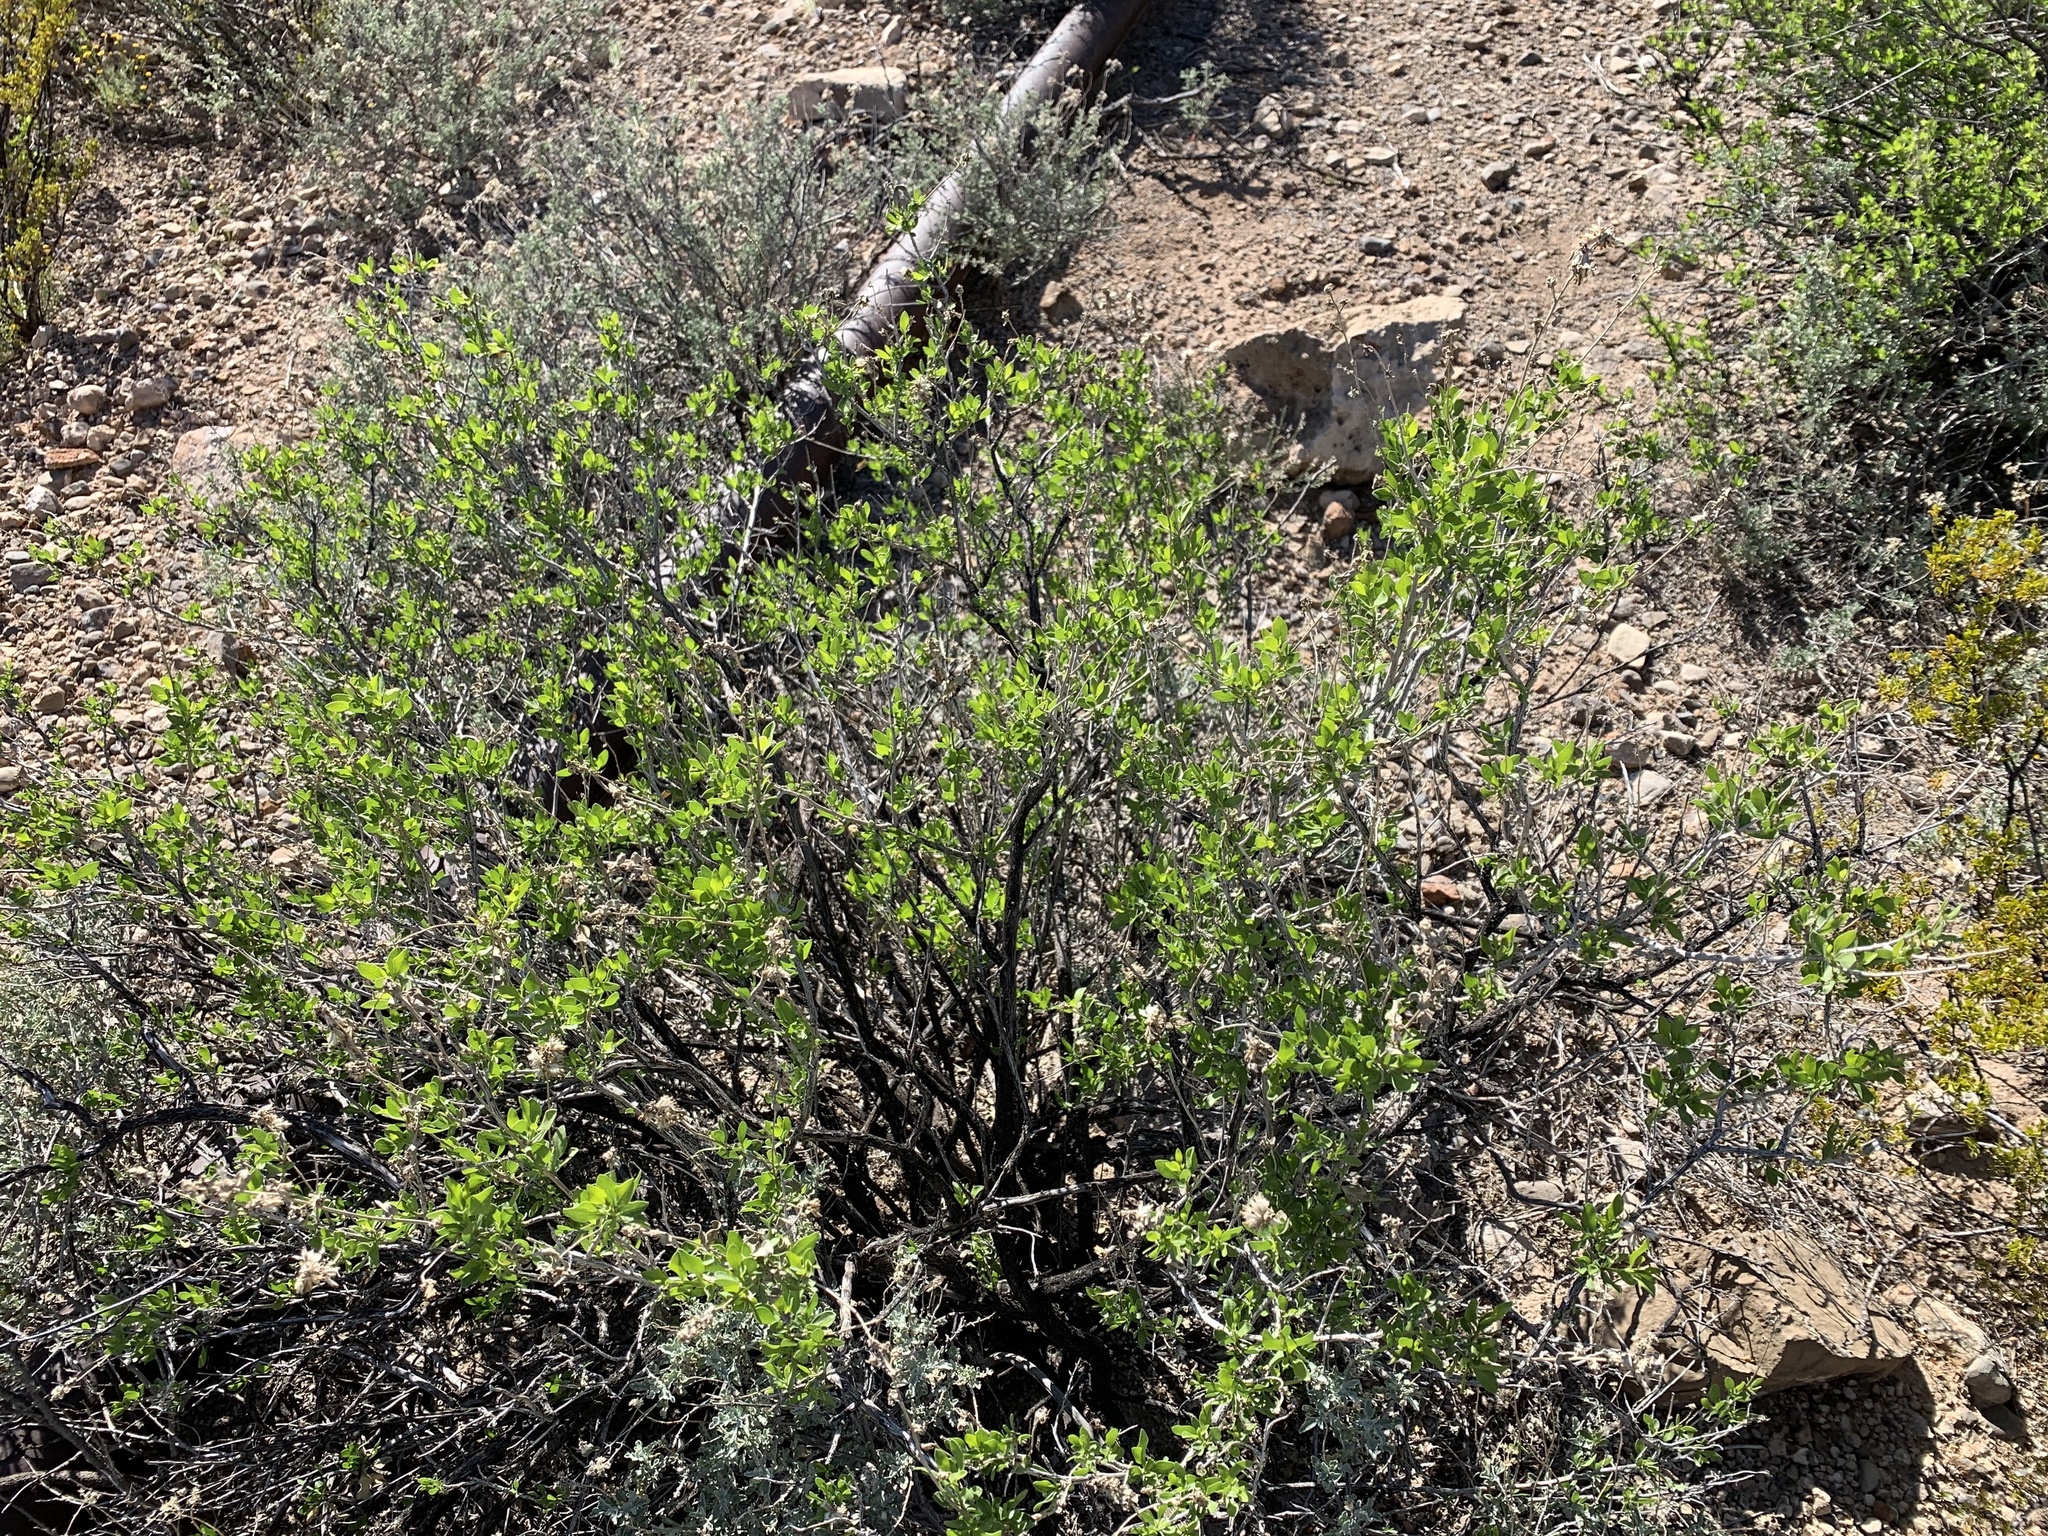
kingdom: Plantae
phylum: Tracheophyta
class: Magnoliopsida
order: Asterales
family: Asteraceae
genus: Flourensia
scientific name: Flourensia cernua
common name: Varnishbush
